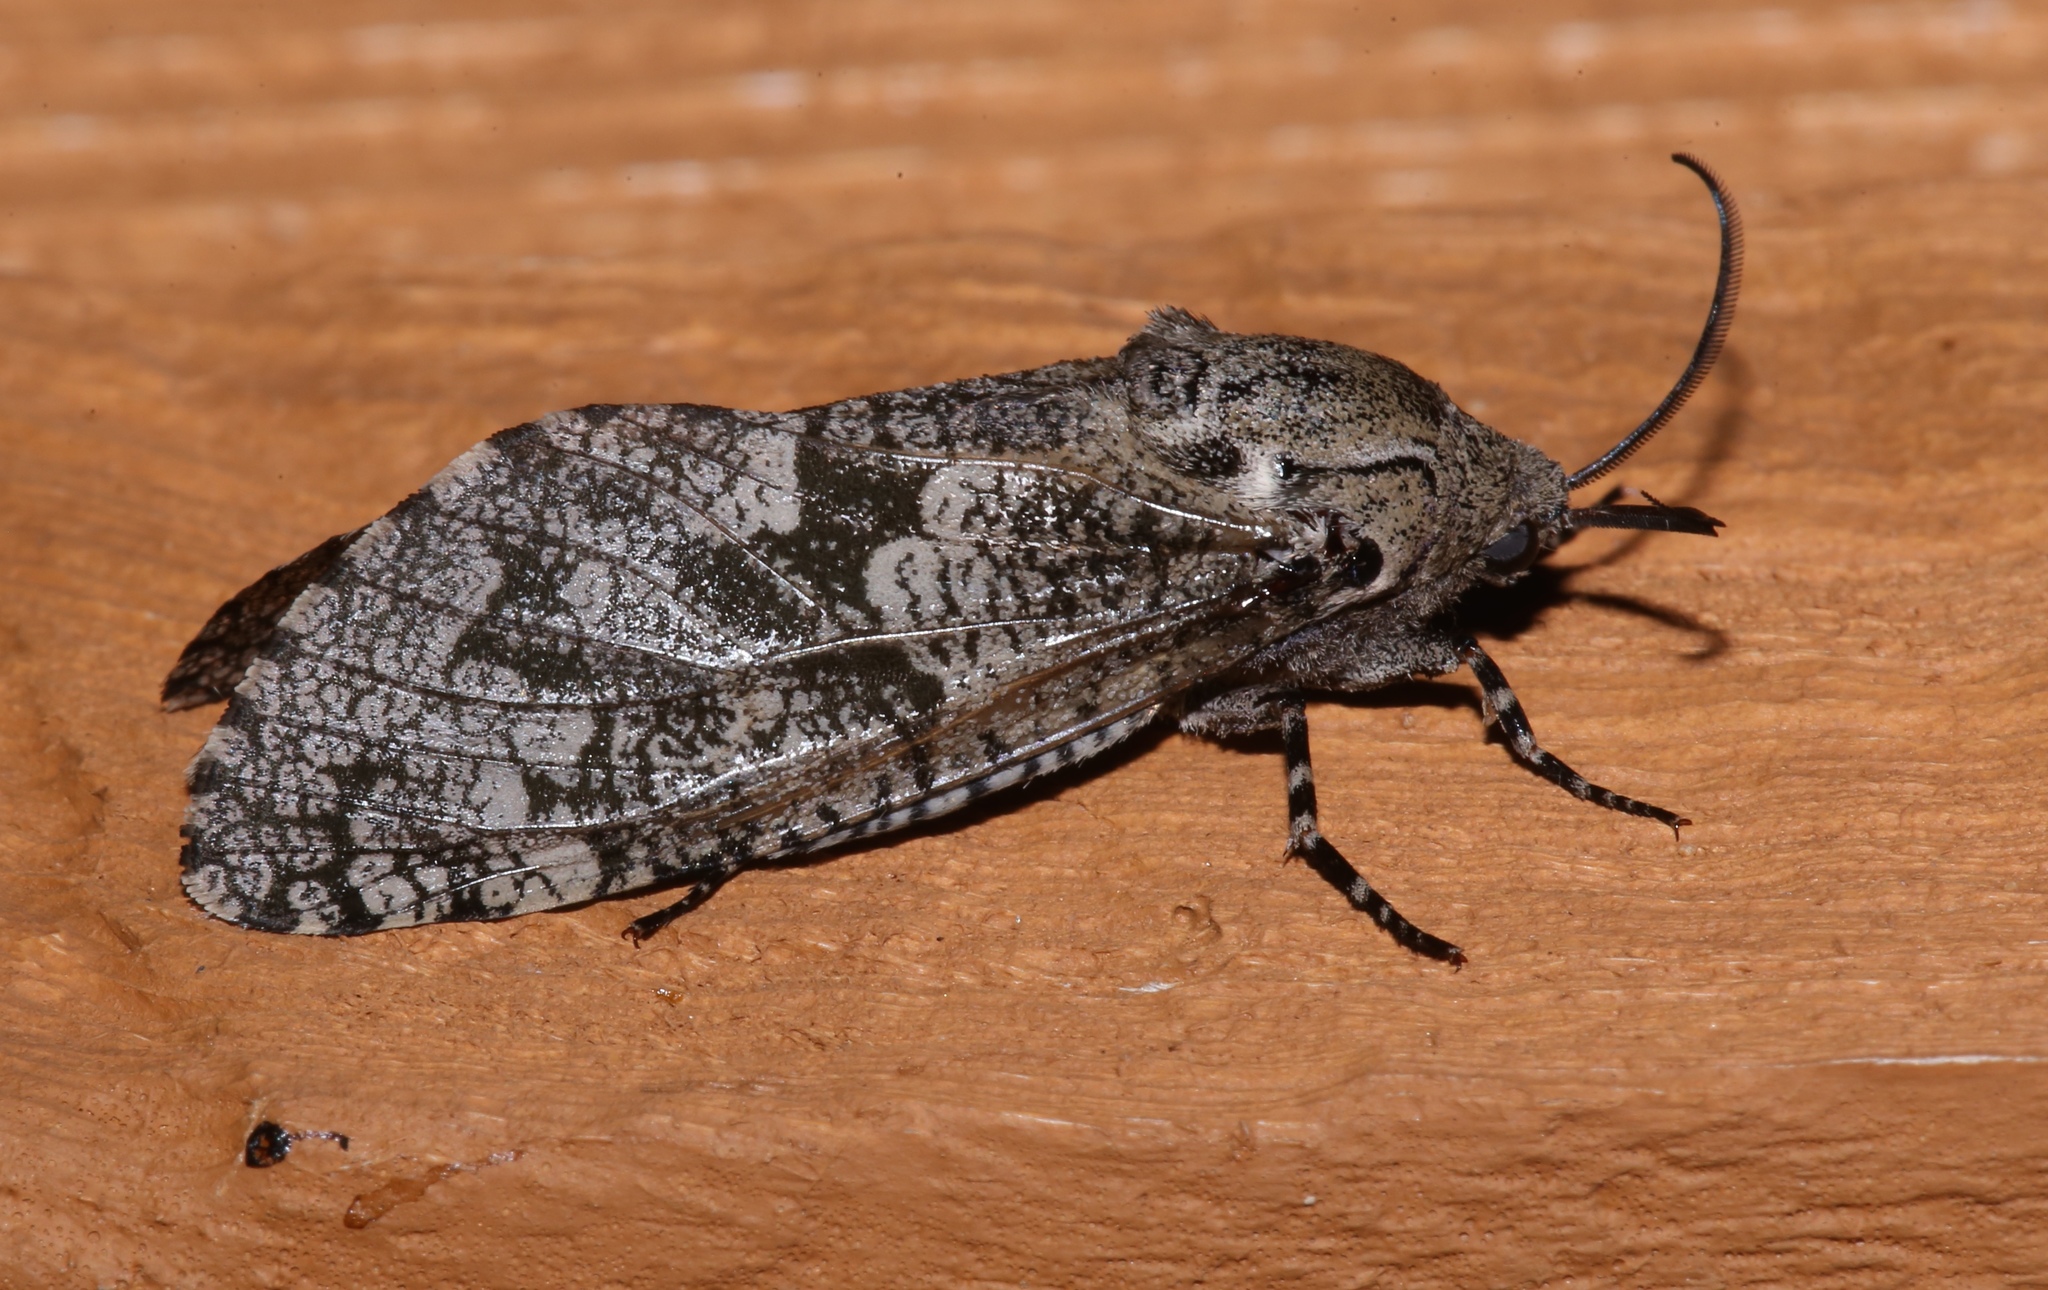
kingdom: Animalia
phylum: Arthropoda
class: Insecta
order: Lepidoptera
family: Cossidae
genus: Prionoxystus
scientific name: Prionoxystus robiniae
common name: Carpenterworm
